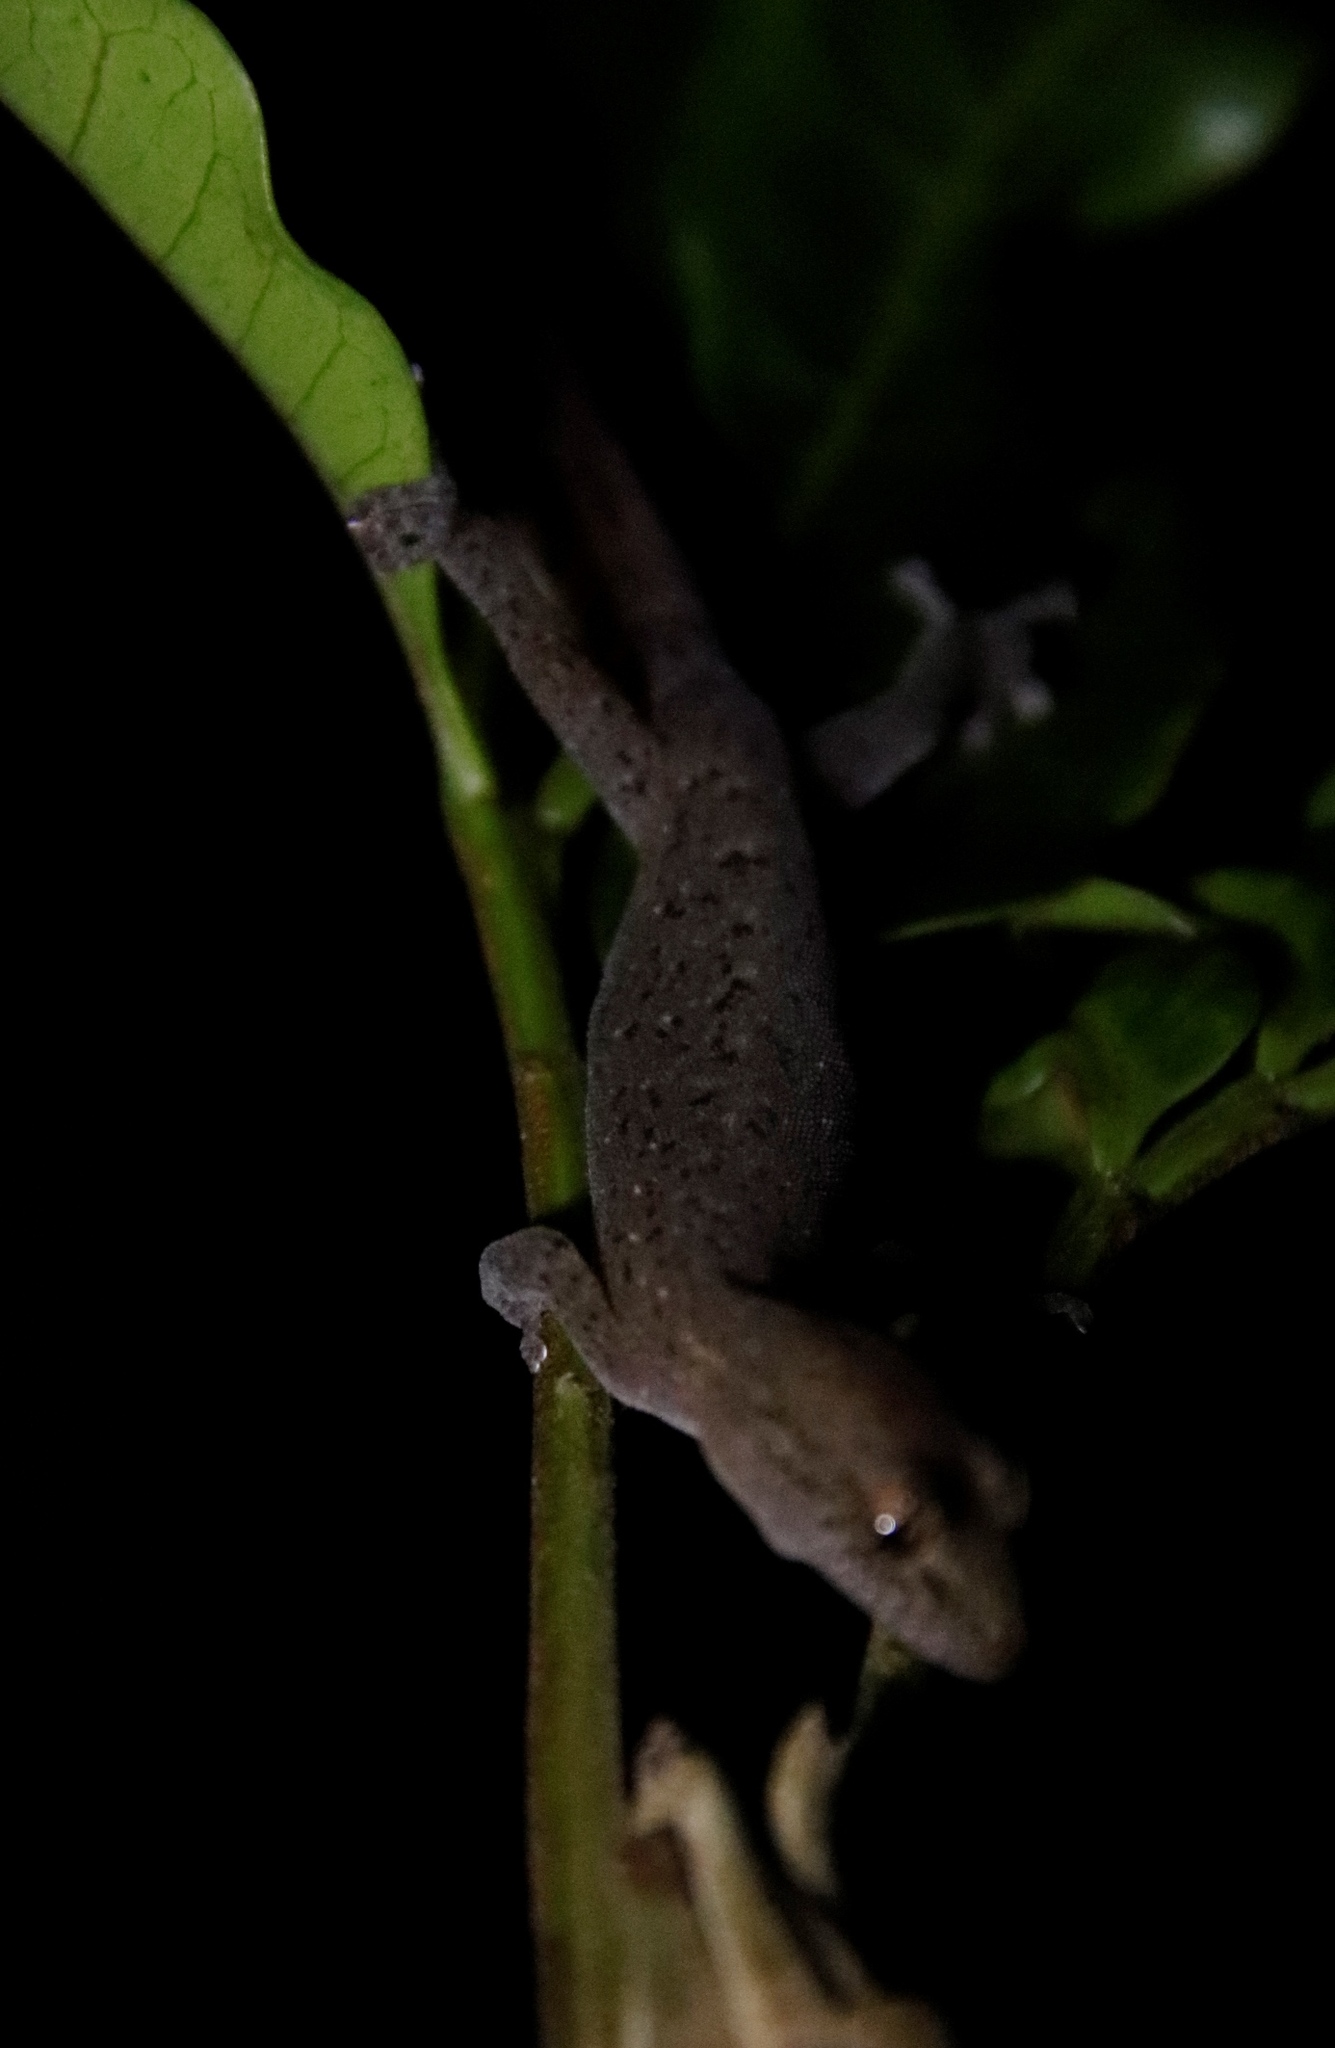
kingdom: Animalia
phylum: Chordata
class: Squamata
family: Gekkonidae
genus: Afrogecko
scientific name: Afrogecko porphyreus
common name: Marbled leaf-toed gecko
